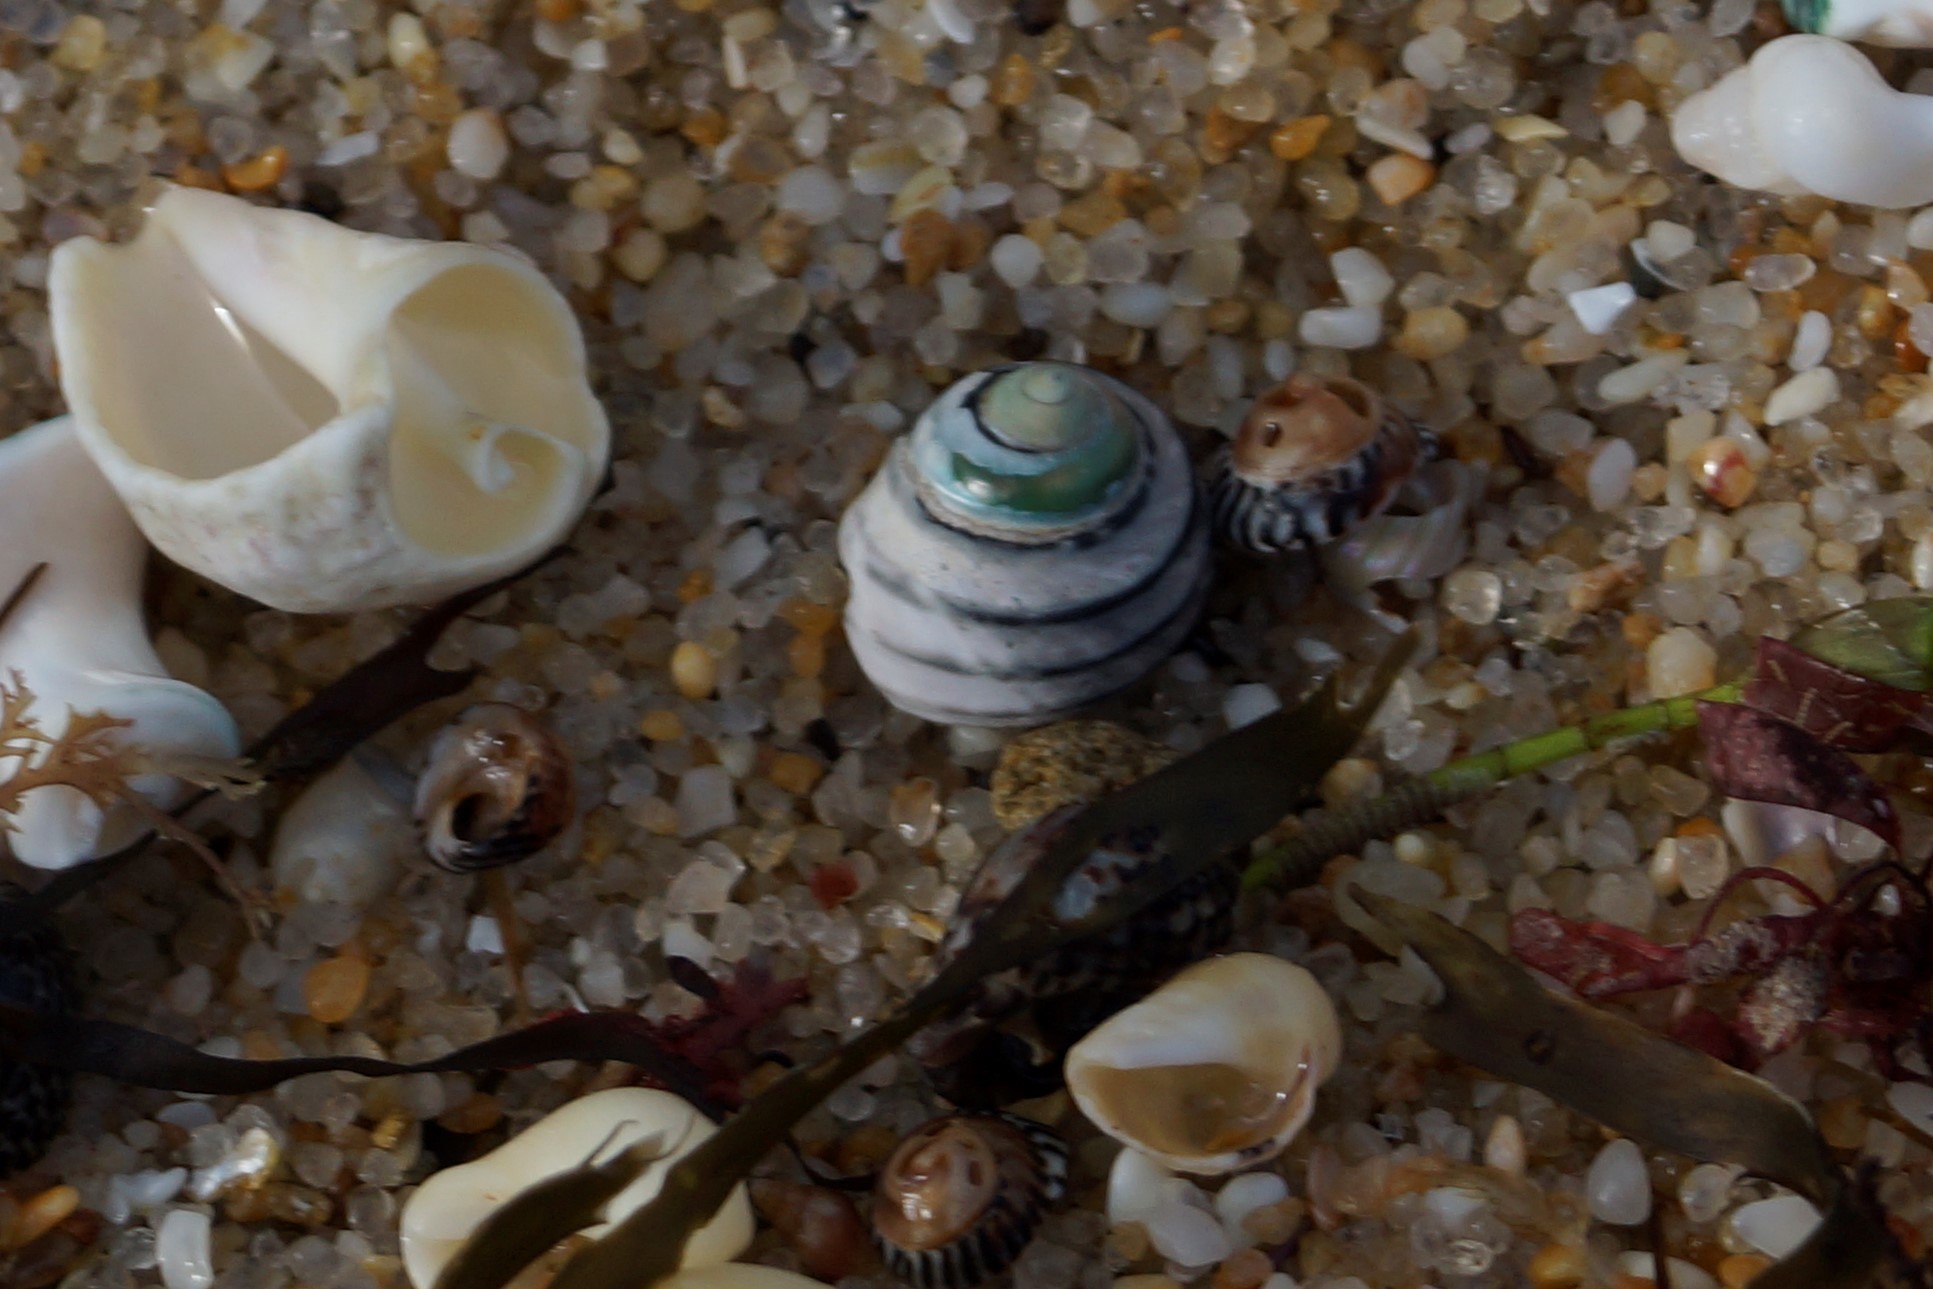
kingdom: Animalia
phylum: Mollusca
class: Gastropoda
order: Trochida
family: Trochidae
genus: Austrocochlea
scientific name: Austrocochlea constricta
